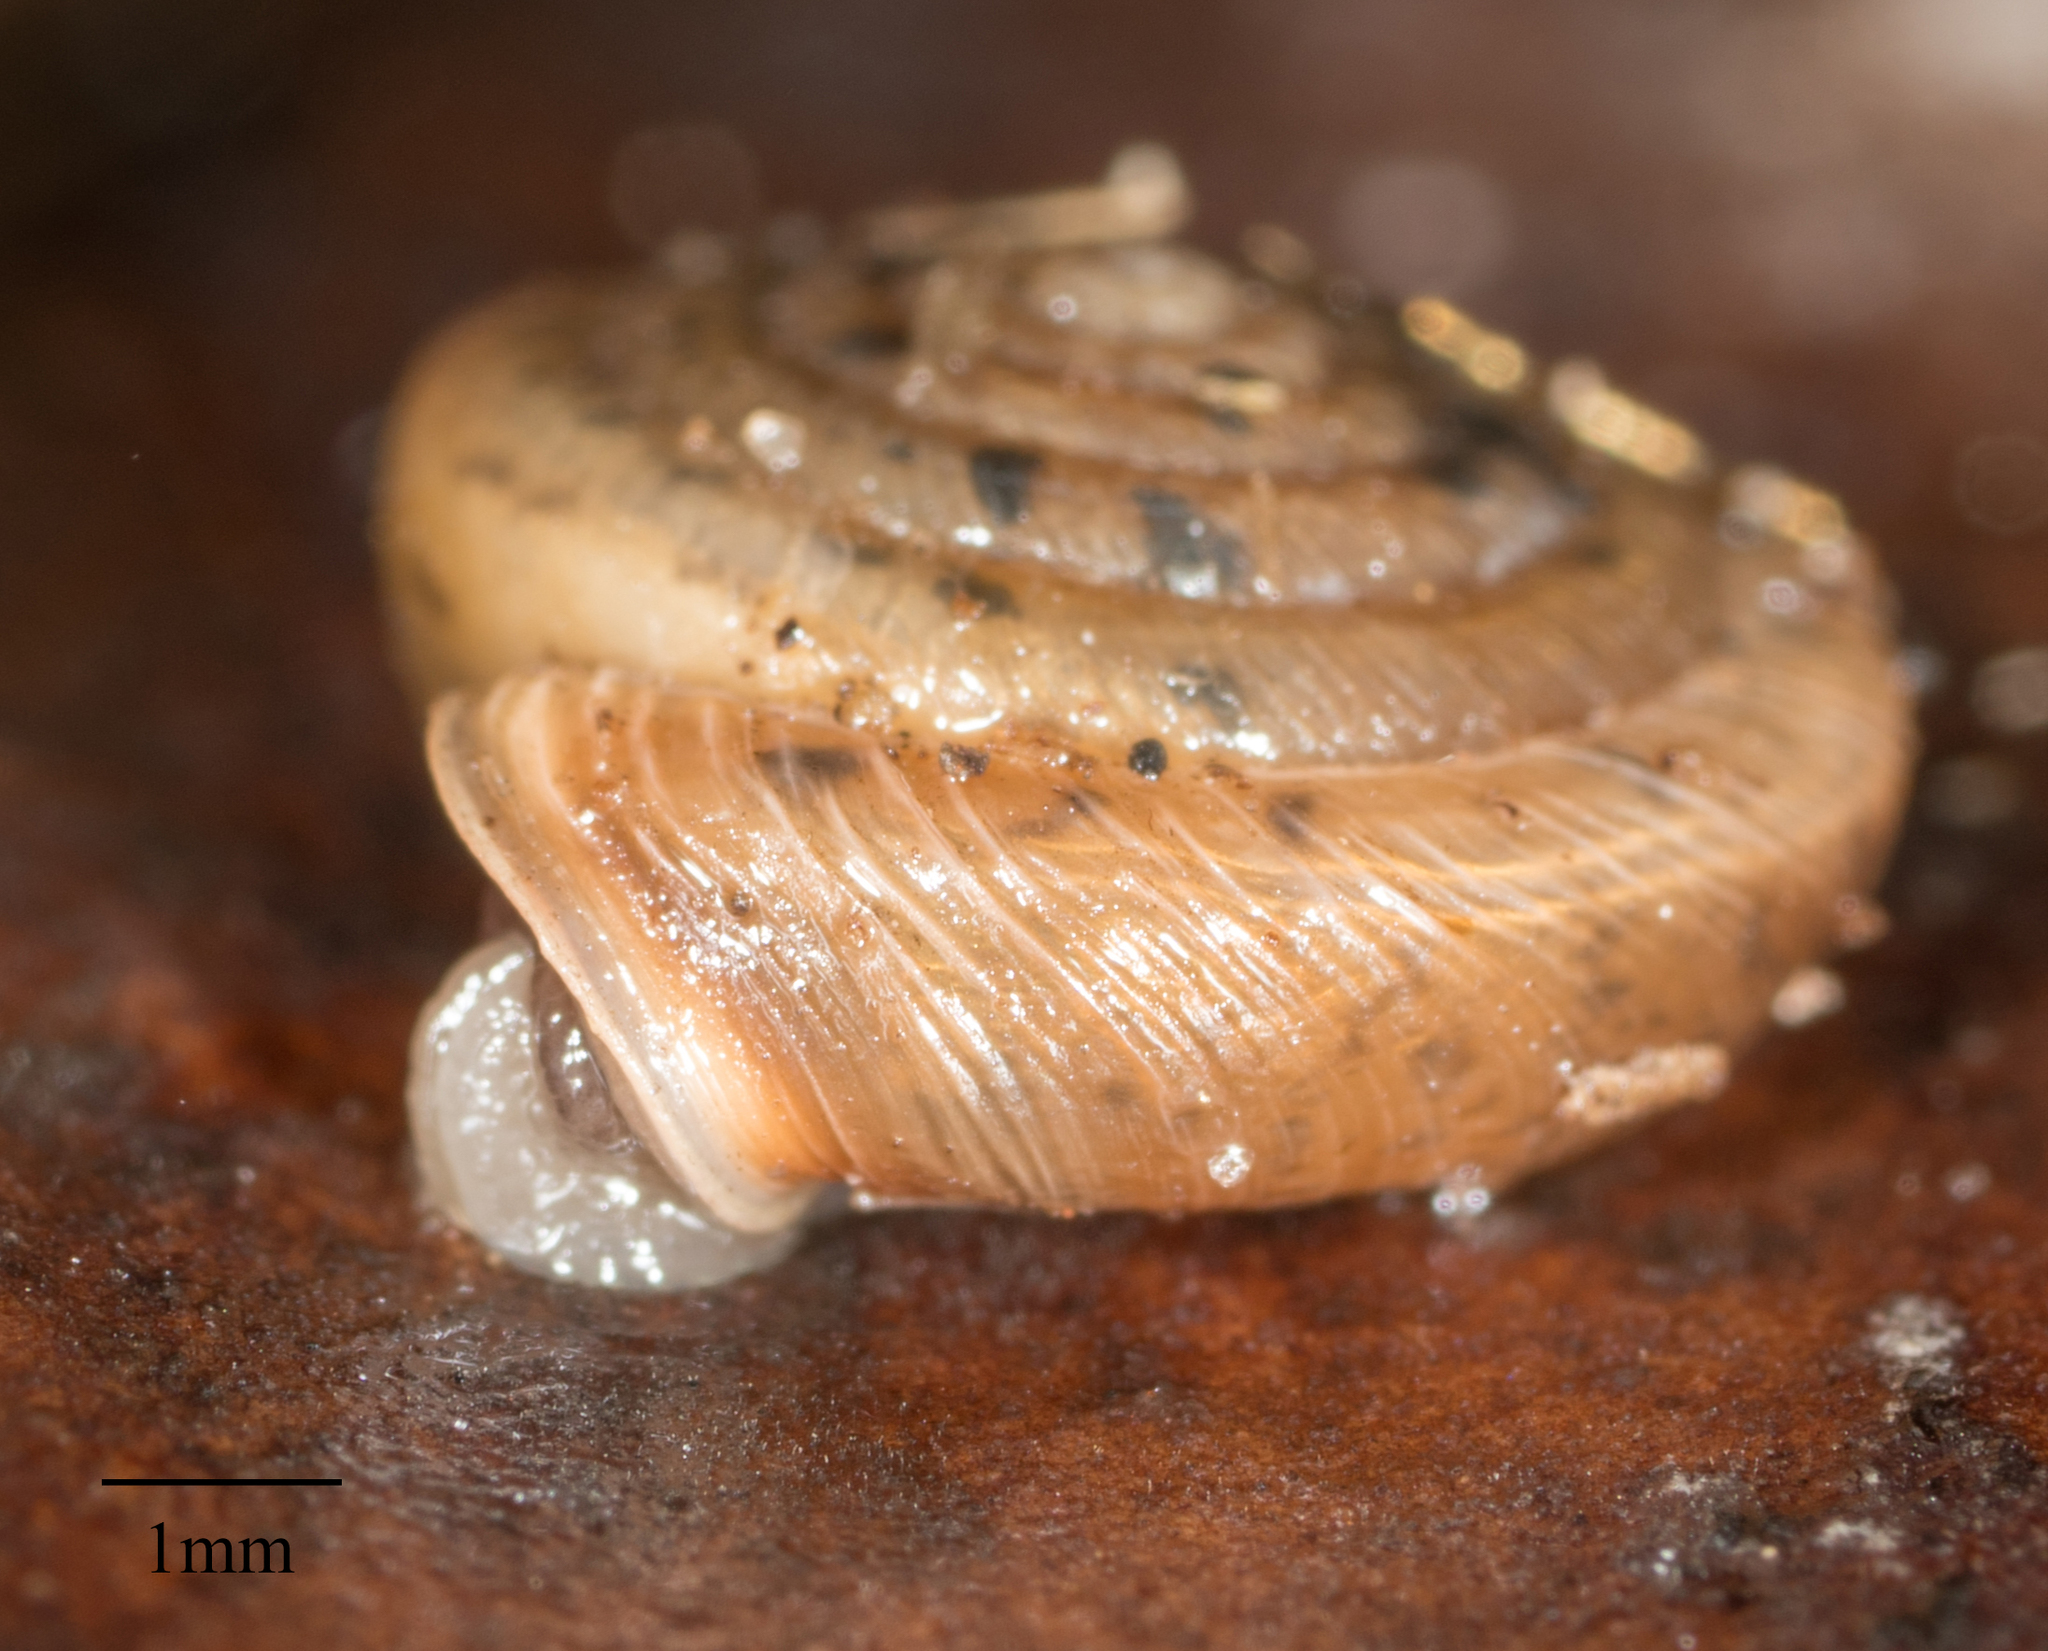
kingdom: Animalia
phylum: Mollusca
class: Gastropoda
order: Stylommatophora
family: Polygyridae
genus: Polygyra
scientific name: Polygyra cereolus
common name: Southern flatcone snail
